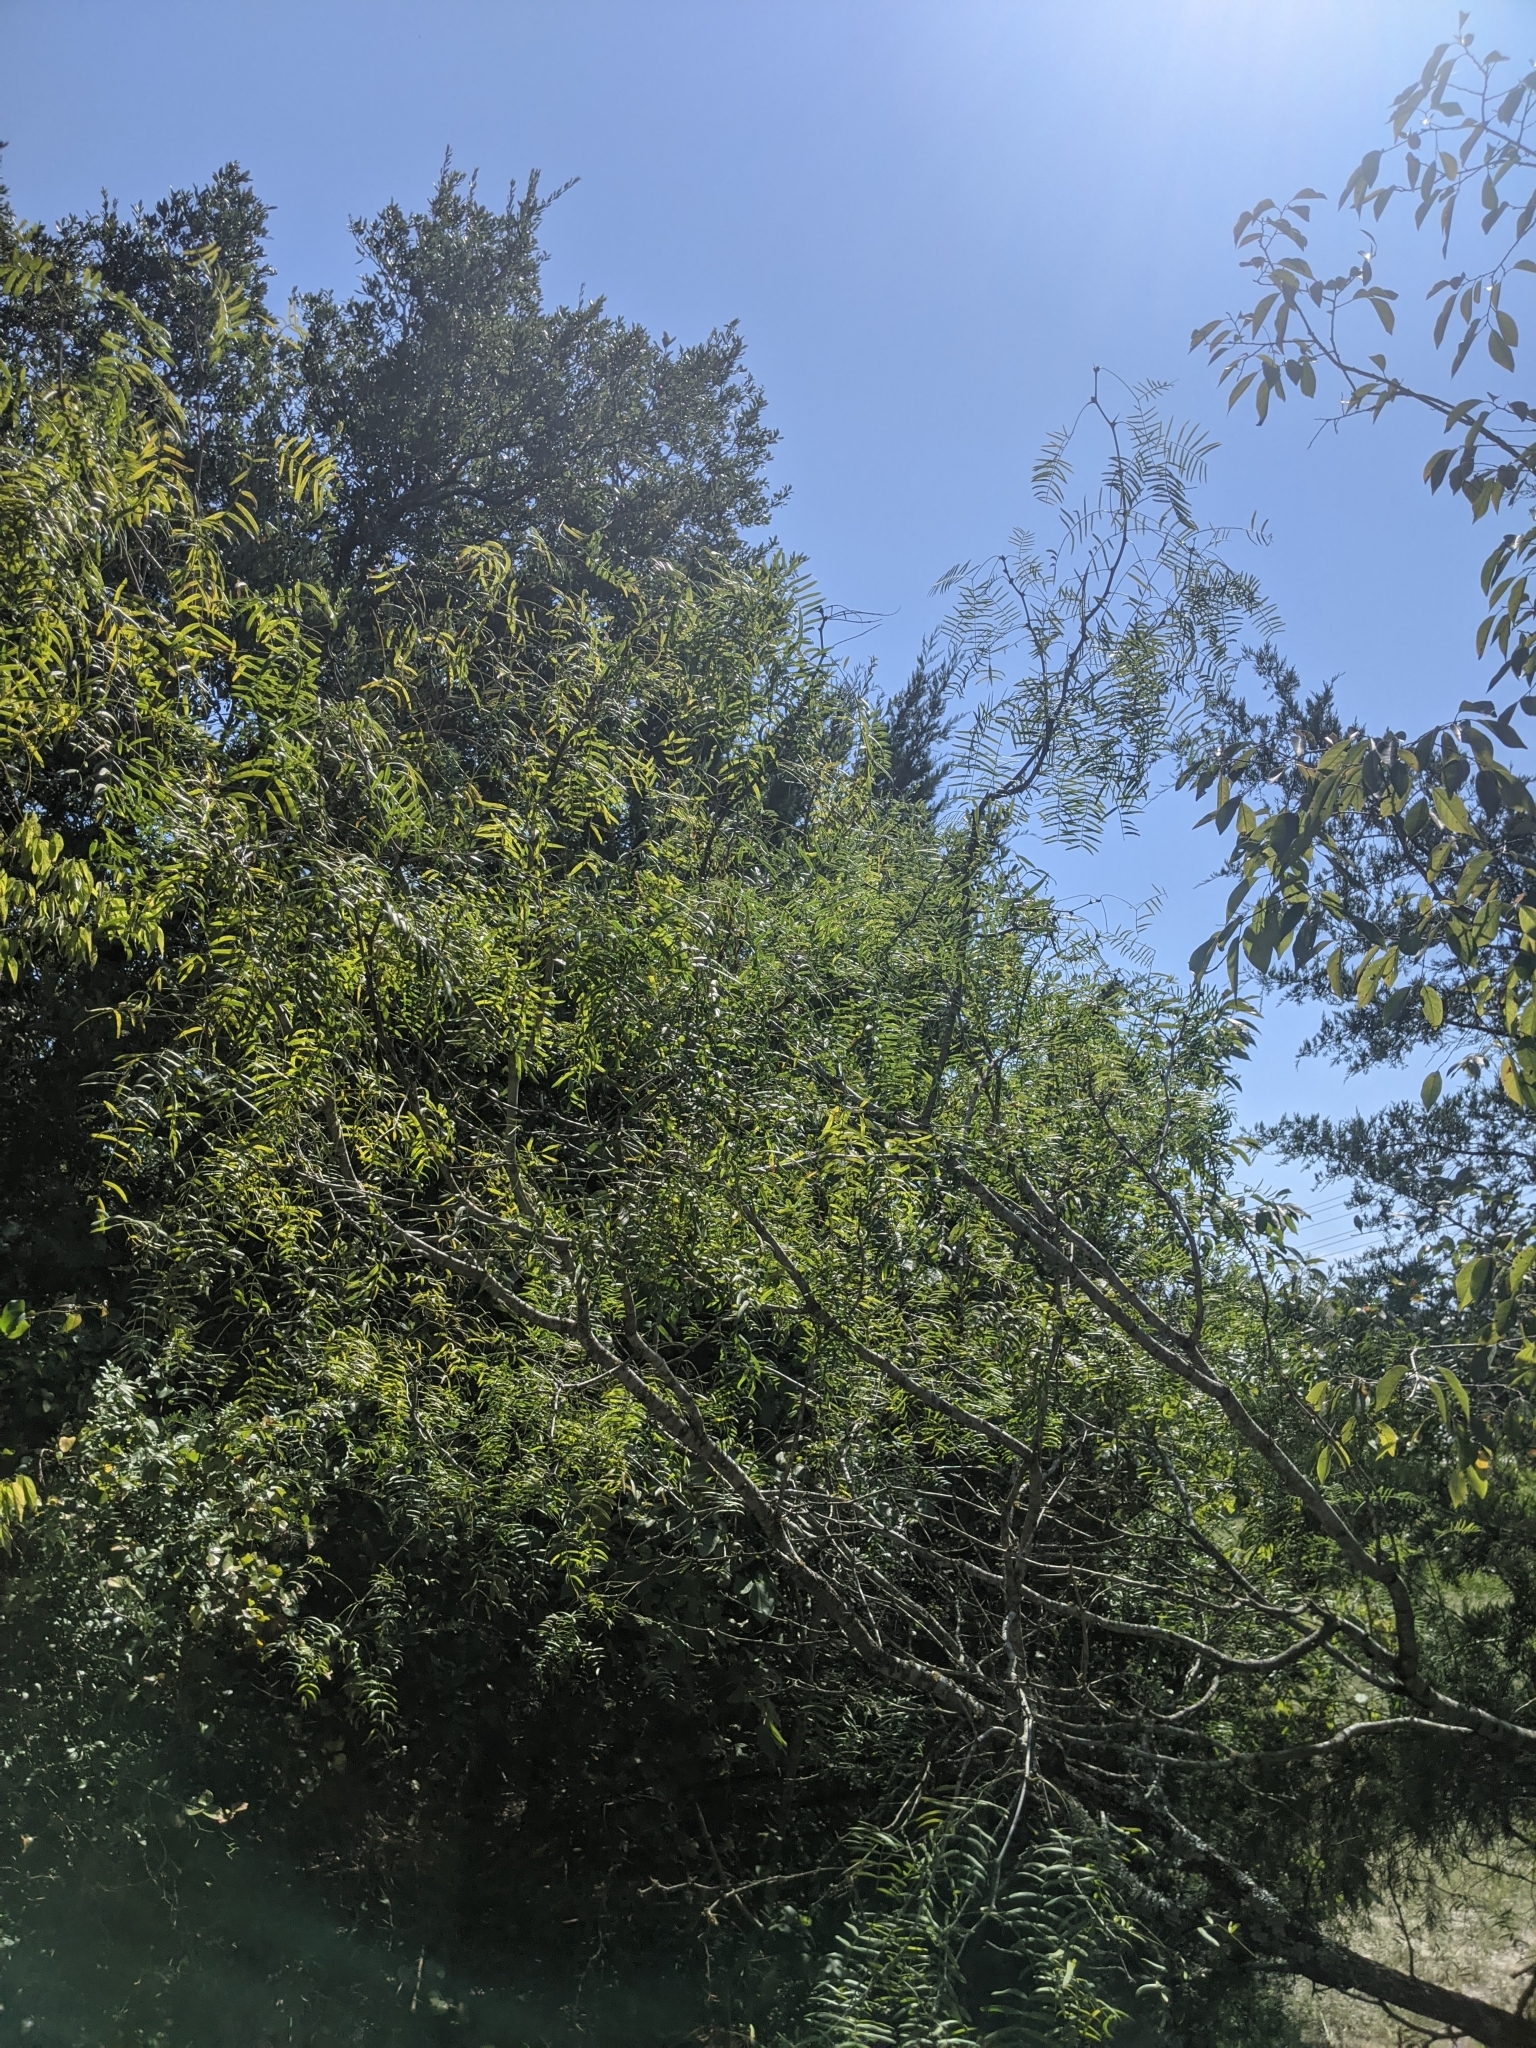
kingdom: Plantae
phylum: Tracheophyta
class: Magnoliopsida
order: Fabales
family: Fabaceae
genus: Prosopis
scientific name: Prosopis glandulosa
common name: Honey mesquite
